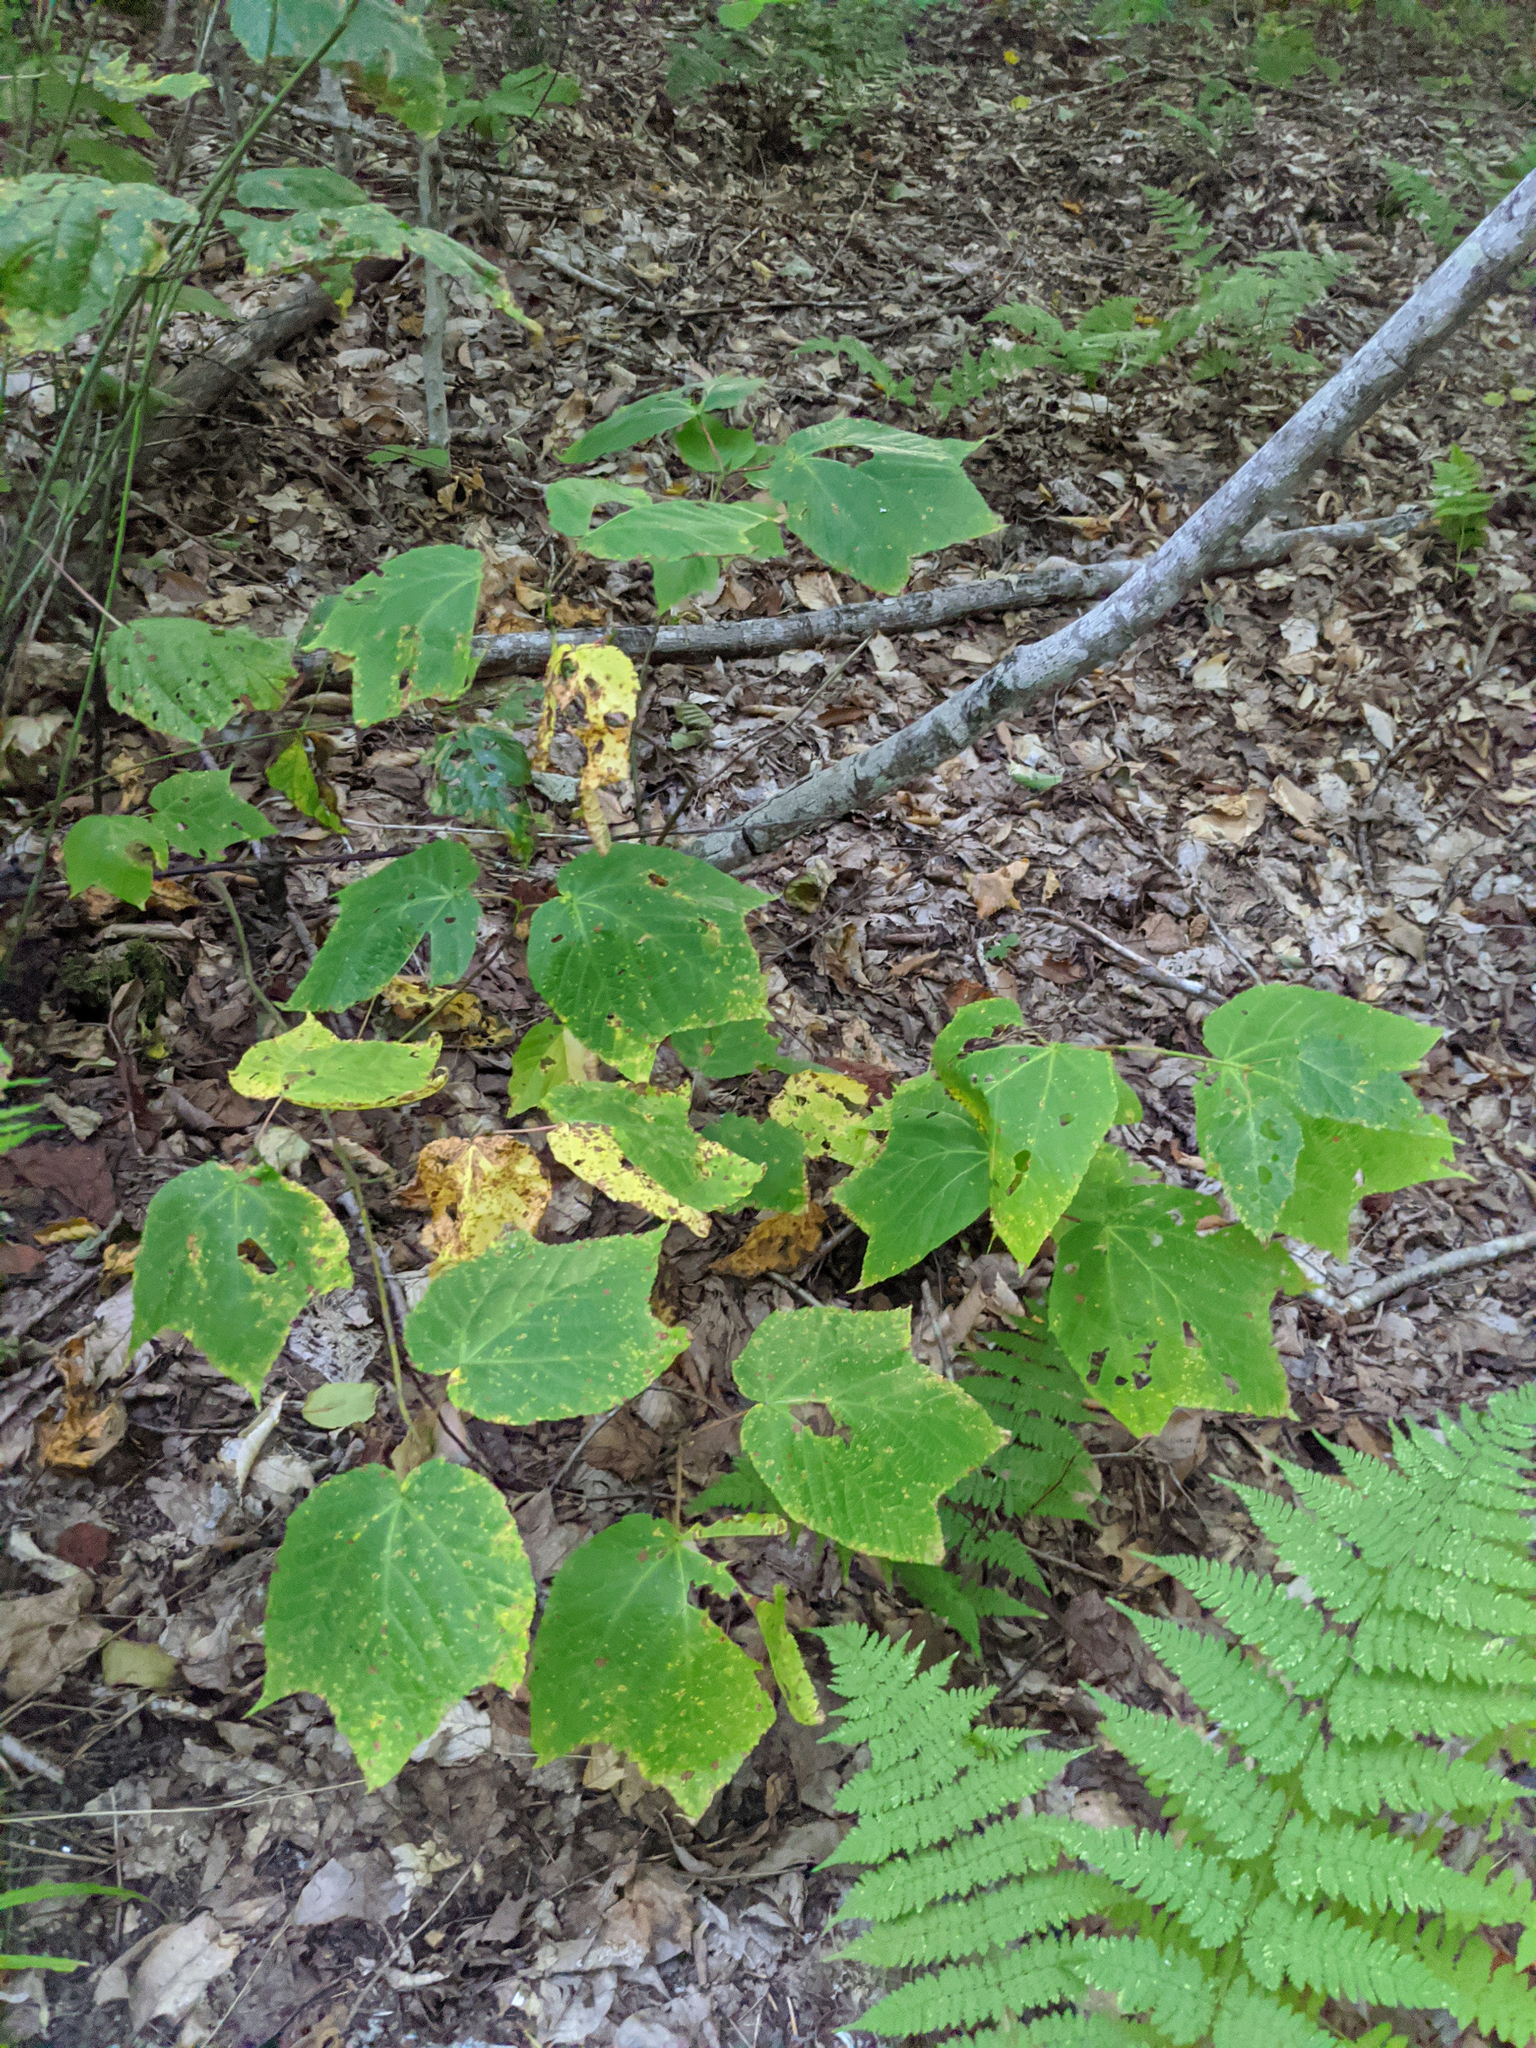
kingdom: Plantae
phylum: Tracheophyta
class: Magnoliopsida
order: Sapindales
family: Sapindaceae
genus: Acer
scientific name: Acer pensylvanicum
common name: Moosewood
